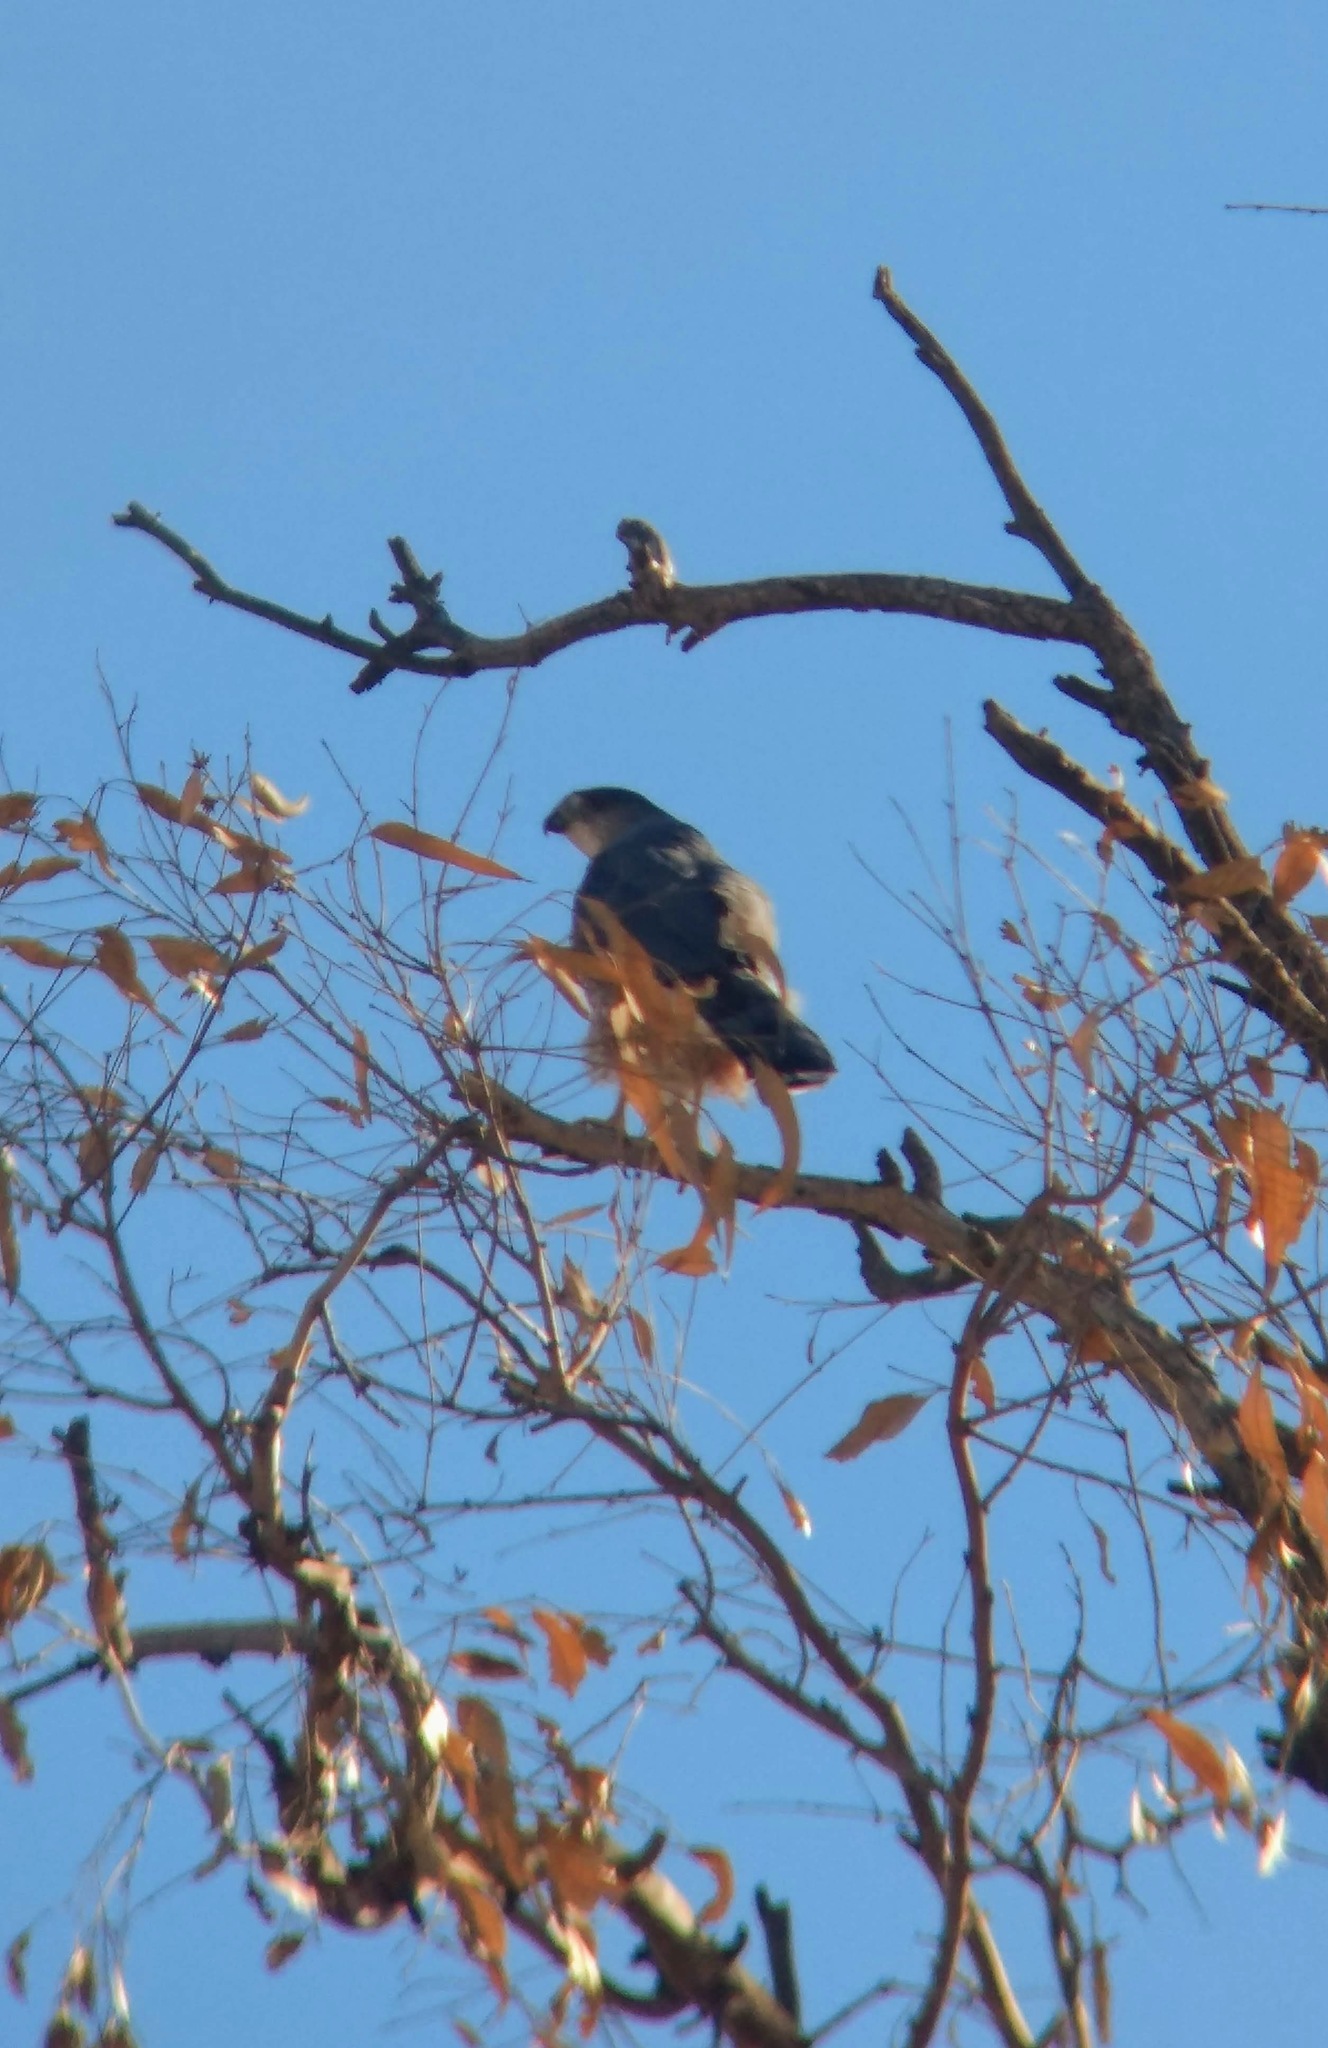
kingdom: Animalia
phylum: Chordata
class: Aves
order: Accipitriformes
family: Accipitridae
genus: Accipiter
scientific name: Accipiter cooperii
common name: Cooper's hawk
